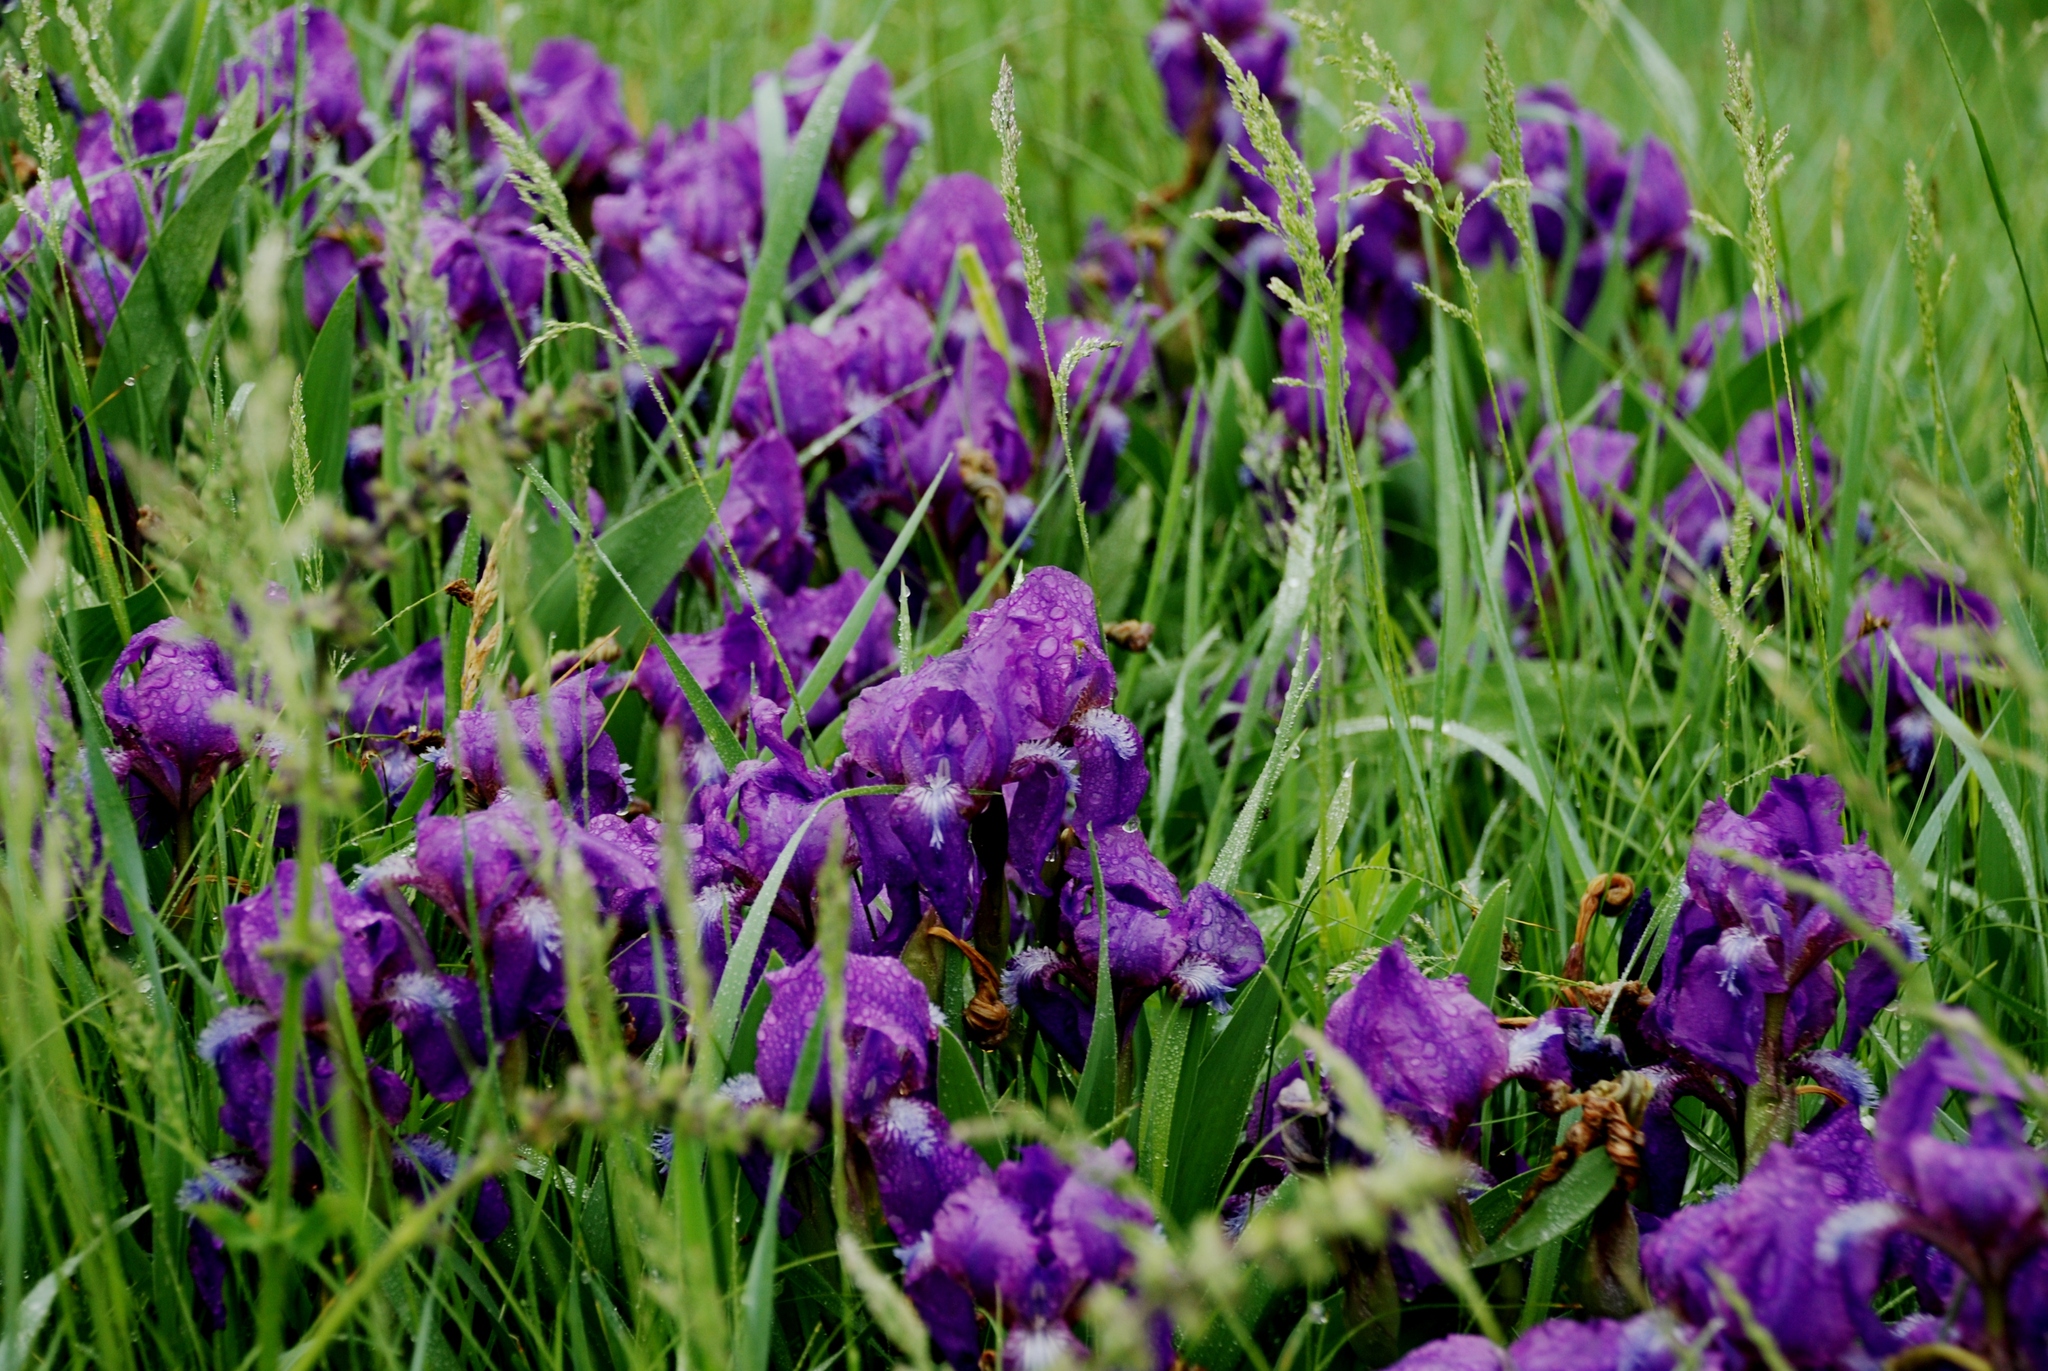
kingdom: Plantae
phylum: Tracheophyta
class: Liliopsida
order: Asparagales
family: Iridaceae
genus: Iris
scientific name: Iris aphylla
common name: Stool iris
